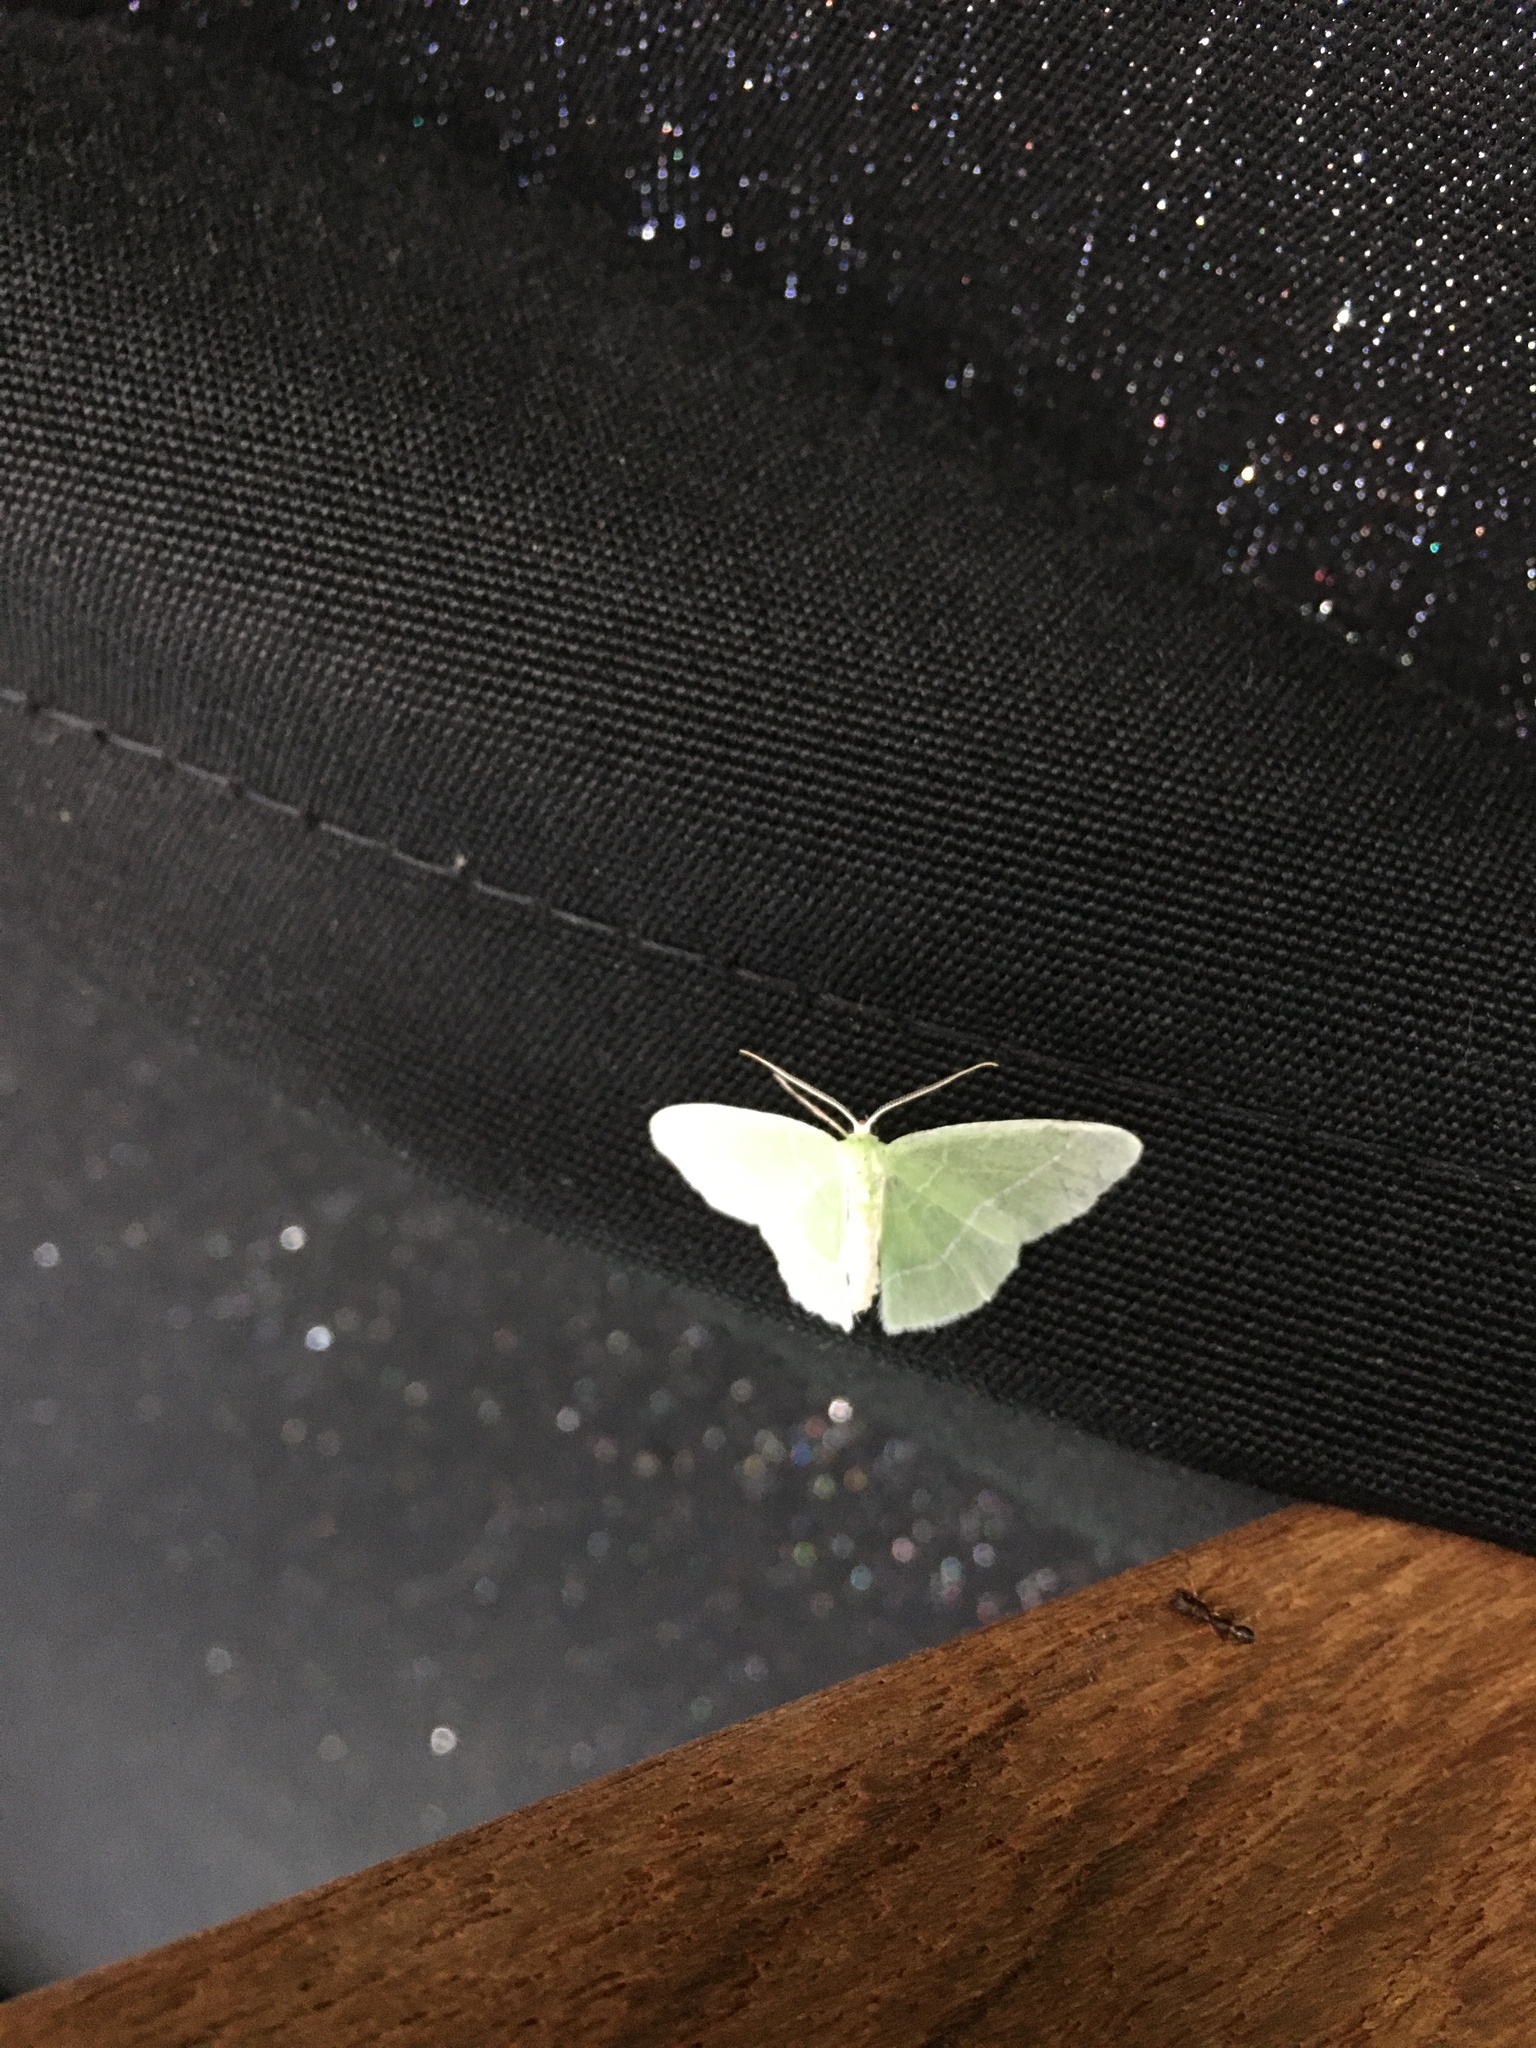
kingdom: Animalia
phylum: Arthropoda
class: Insecta
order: Lepidoptera
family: Geometridae
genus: Nemoria
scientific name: Nemoria mimosaria
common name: White-fringed emerald
